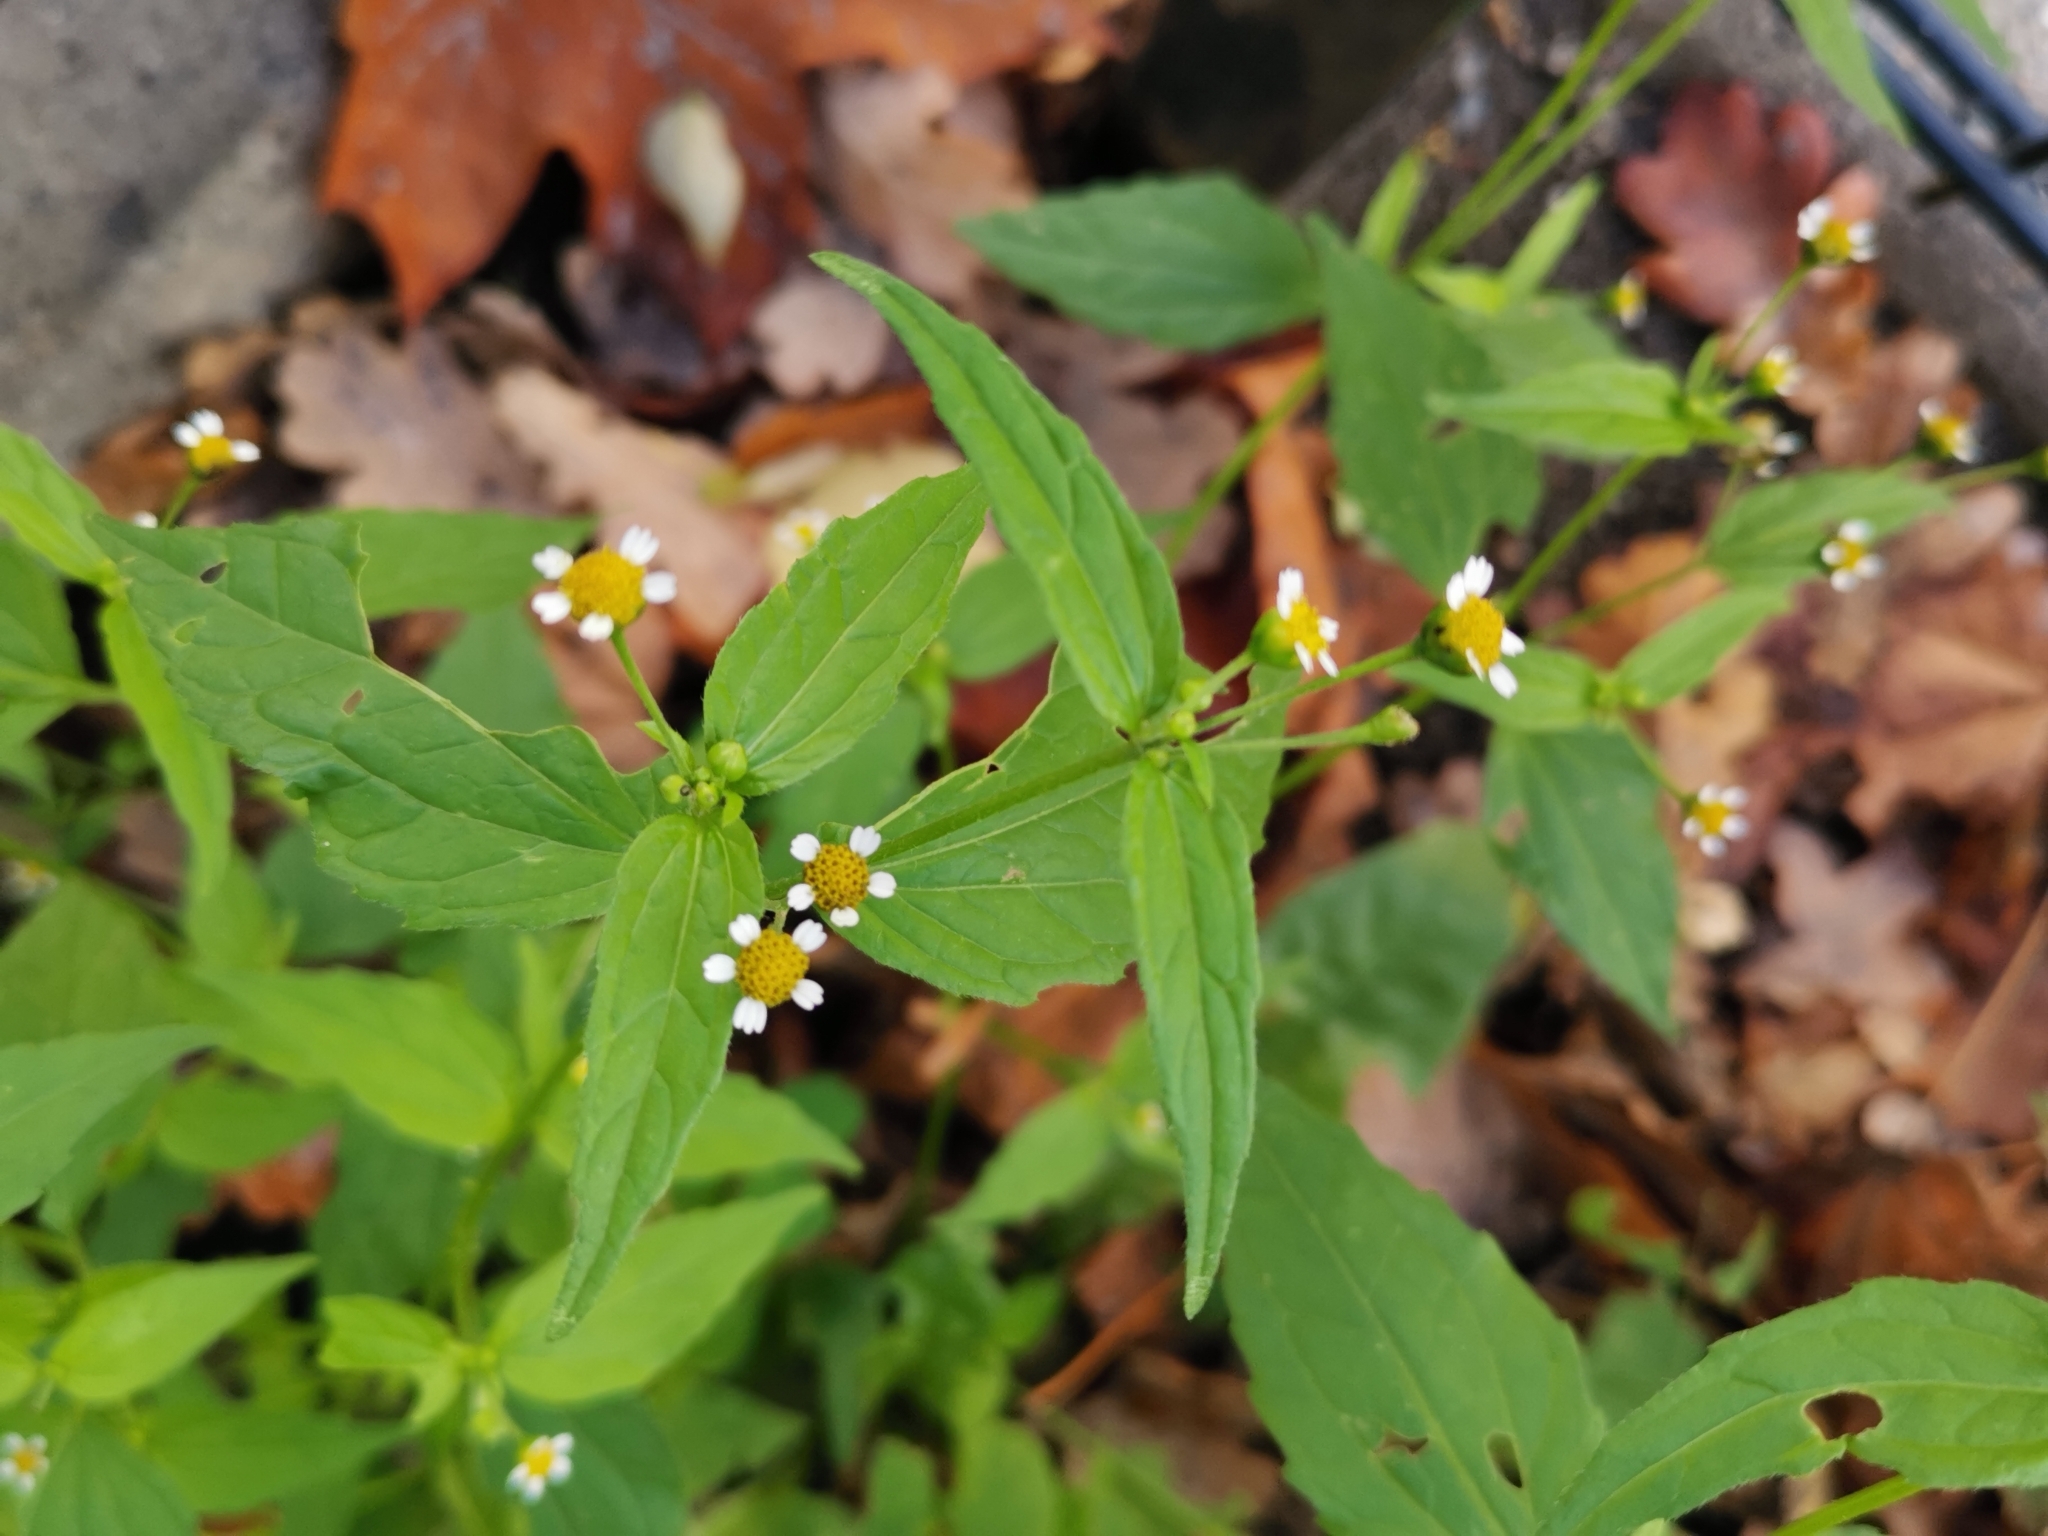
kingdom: Plantae
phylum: Tracheophyta
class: Magnoliopsida
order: Asterales
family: Asteraceae
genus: Galinsoga
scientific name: Galinsoga parviflora
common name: Gallant soldier
